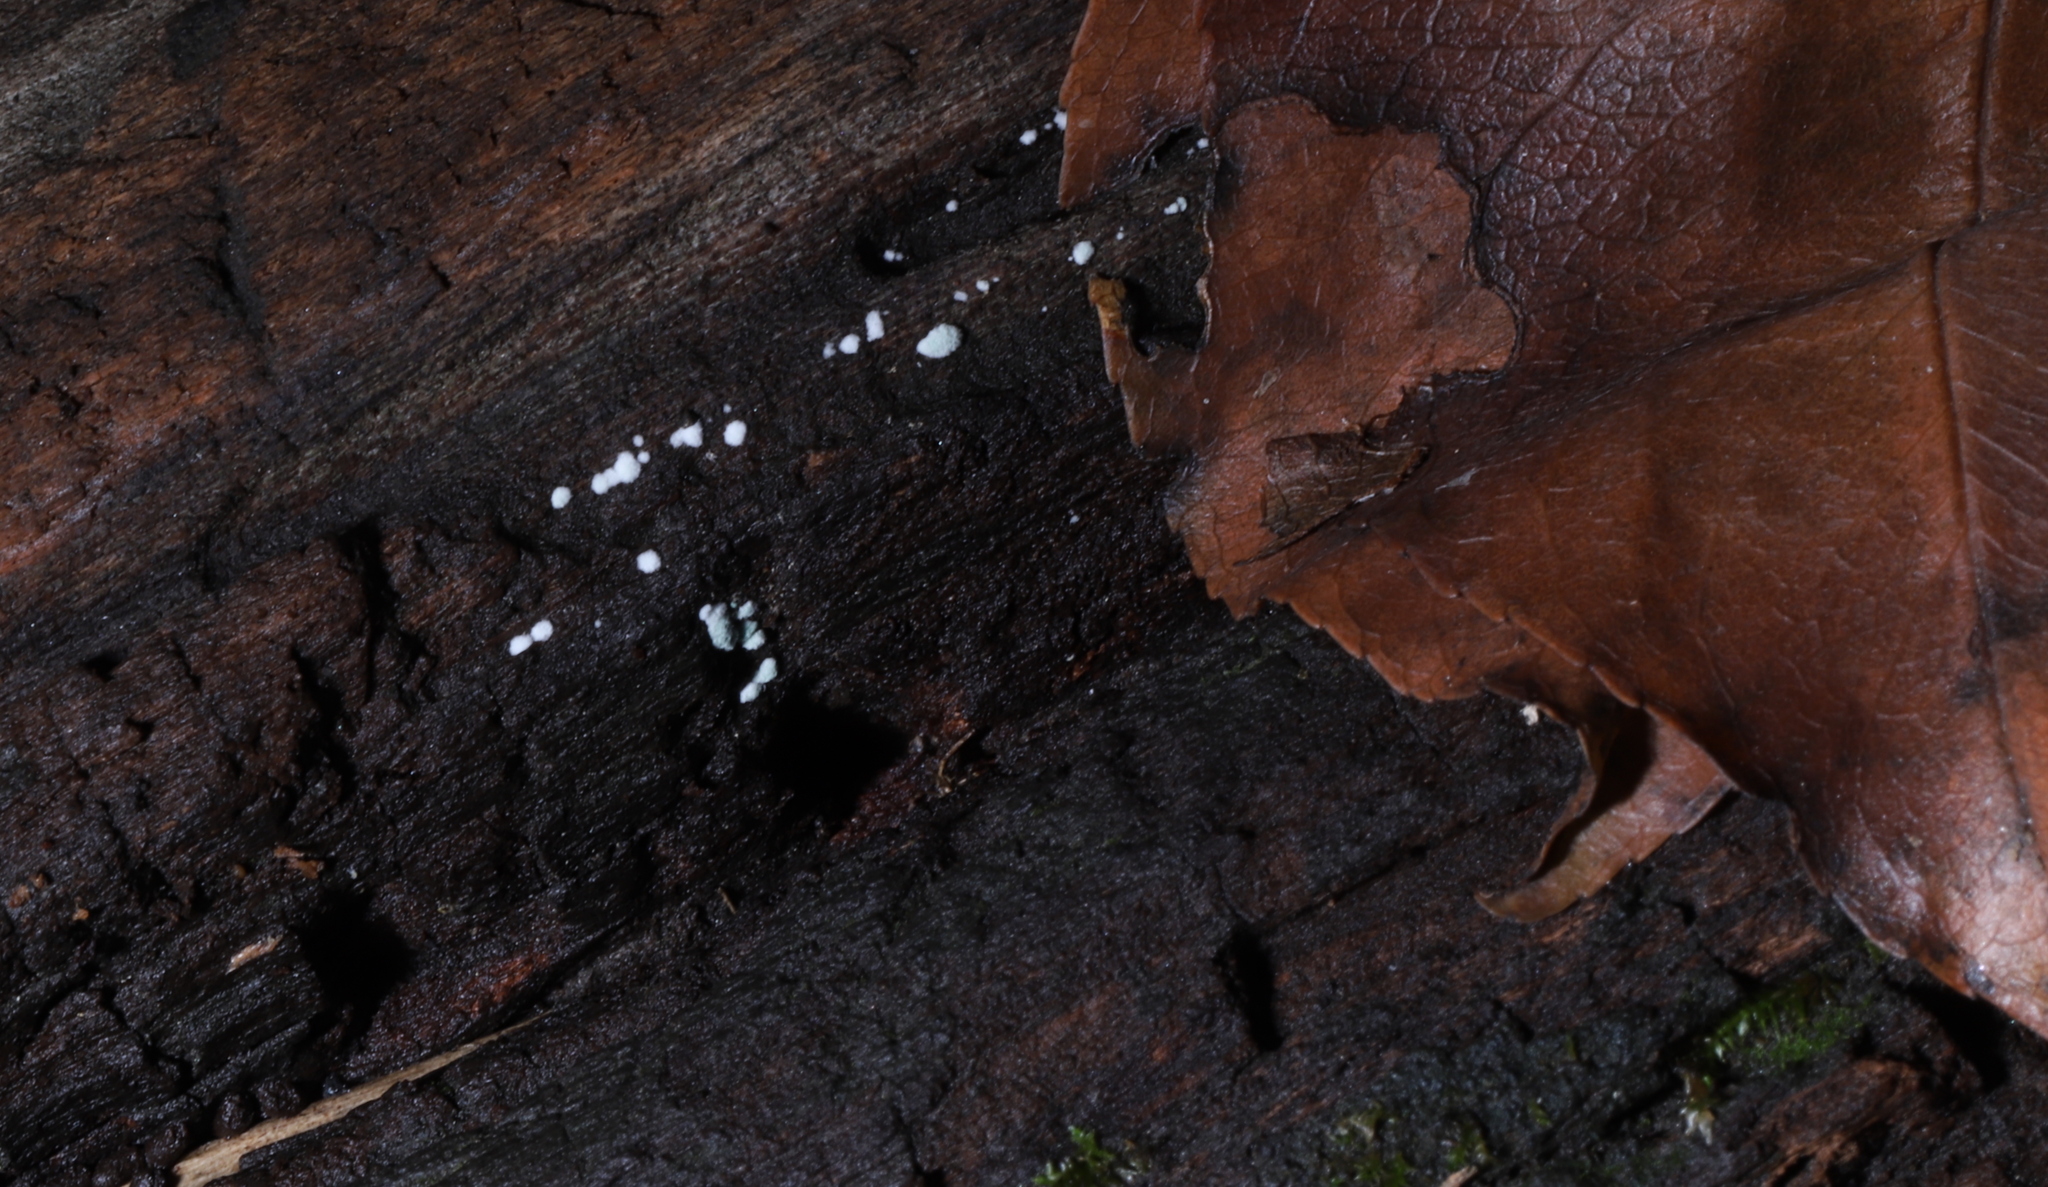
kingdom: Fungi
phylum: Basidiomycota
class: Agaricomycetes
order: Agaricales
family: Schizophyllaceae
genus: Schizophyllum
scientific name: Schizophyllum commune
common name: Common porecrust
